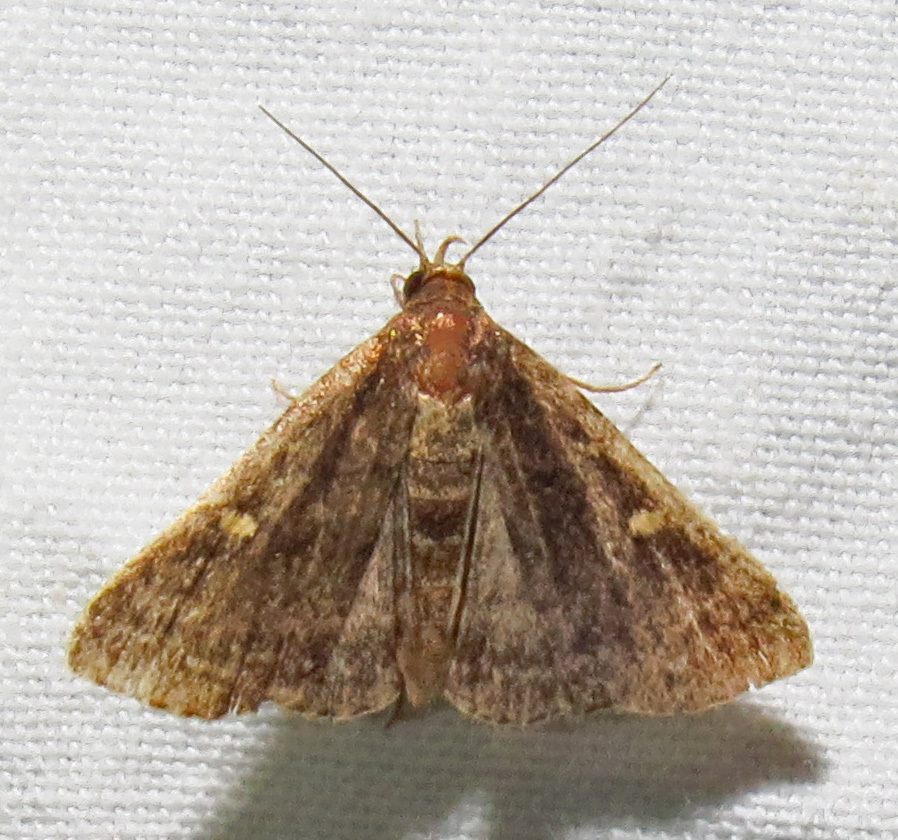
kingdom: Animalia
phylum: Arthropoda
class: Insecta
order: Lepidoptera
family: Erebidae
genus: Tetanolita
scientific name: Tetanolita floridana
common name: Florida tetanolita moth
